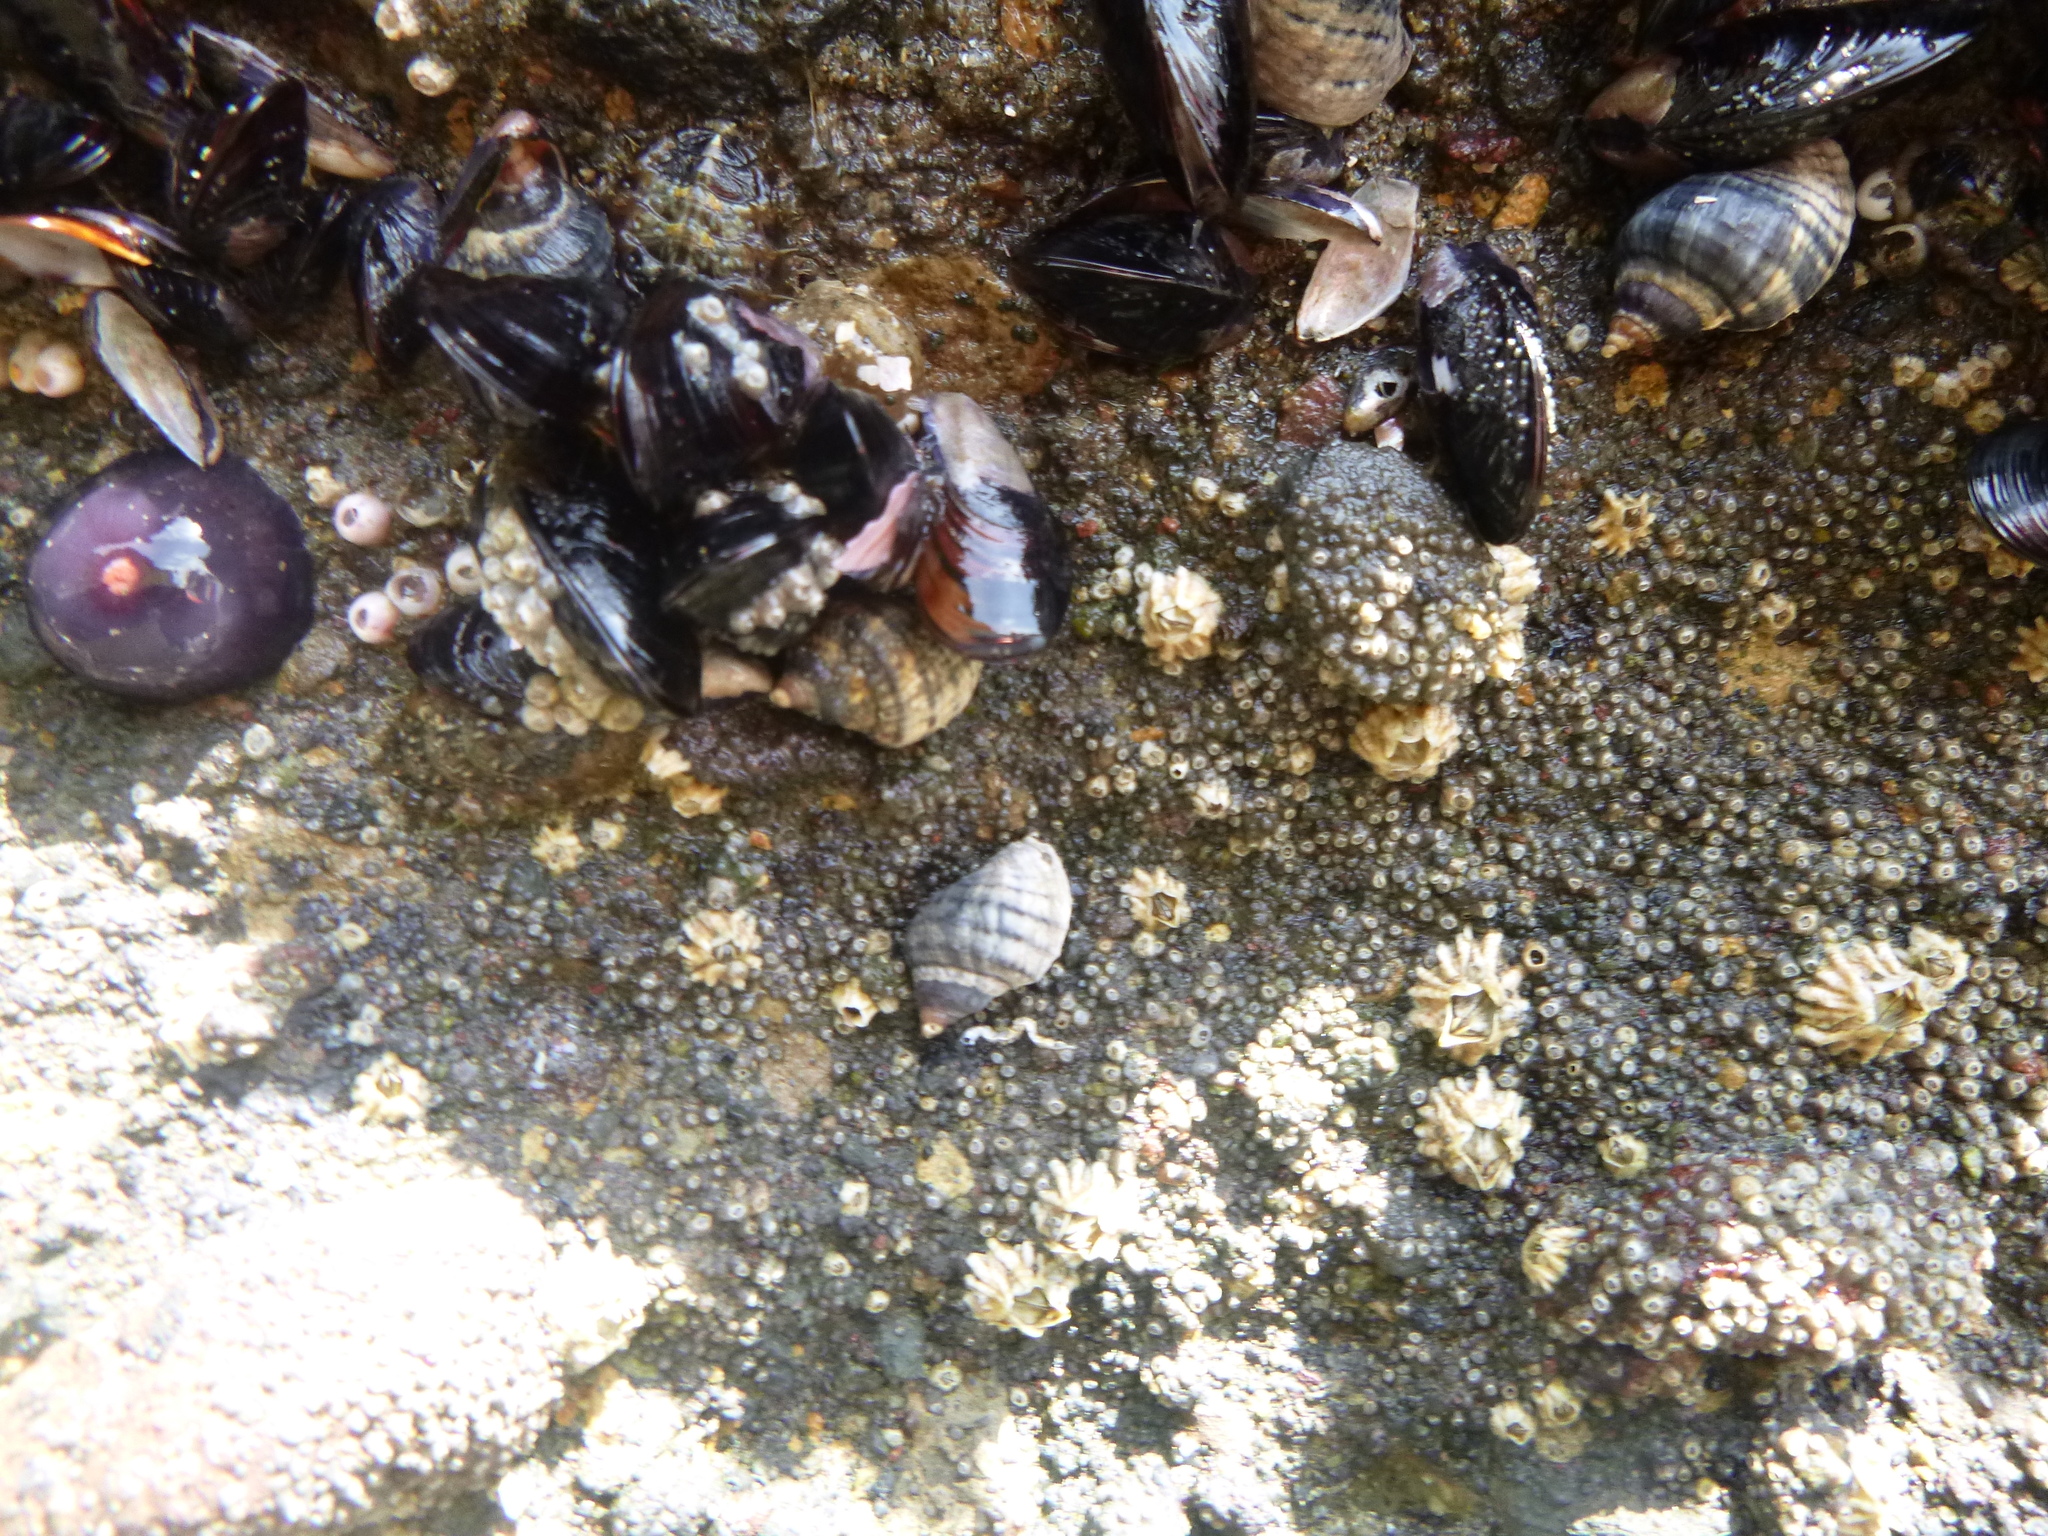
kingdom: Animalia
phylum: Mollusca
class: Gastropoda
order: Neogastropoda
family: Muricidae
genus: Haustrum
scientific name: Haustrum albomarginatum
